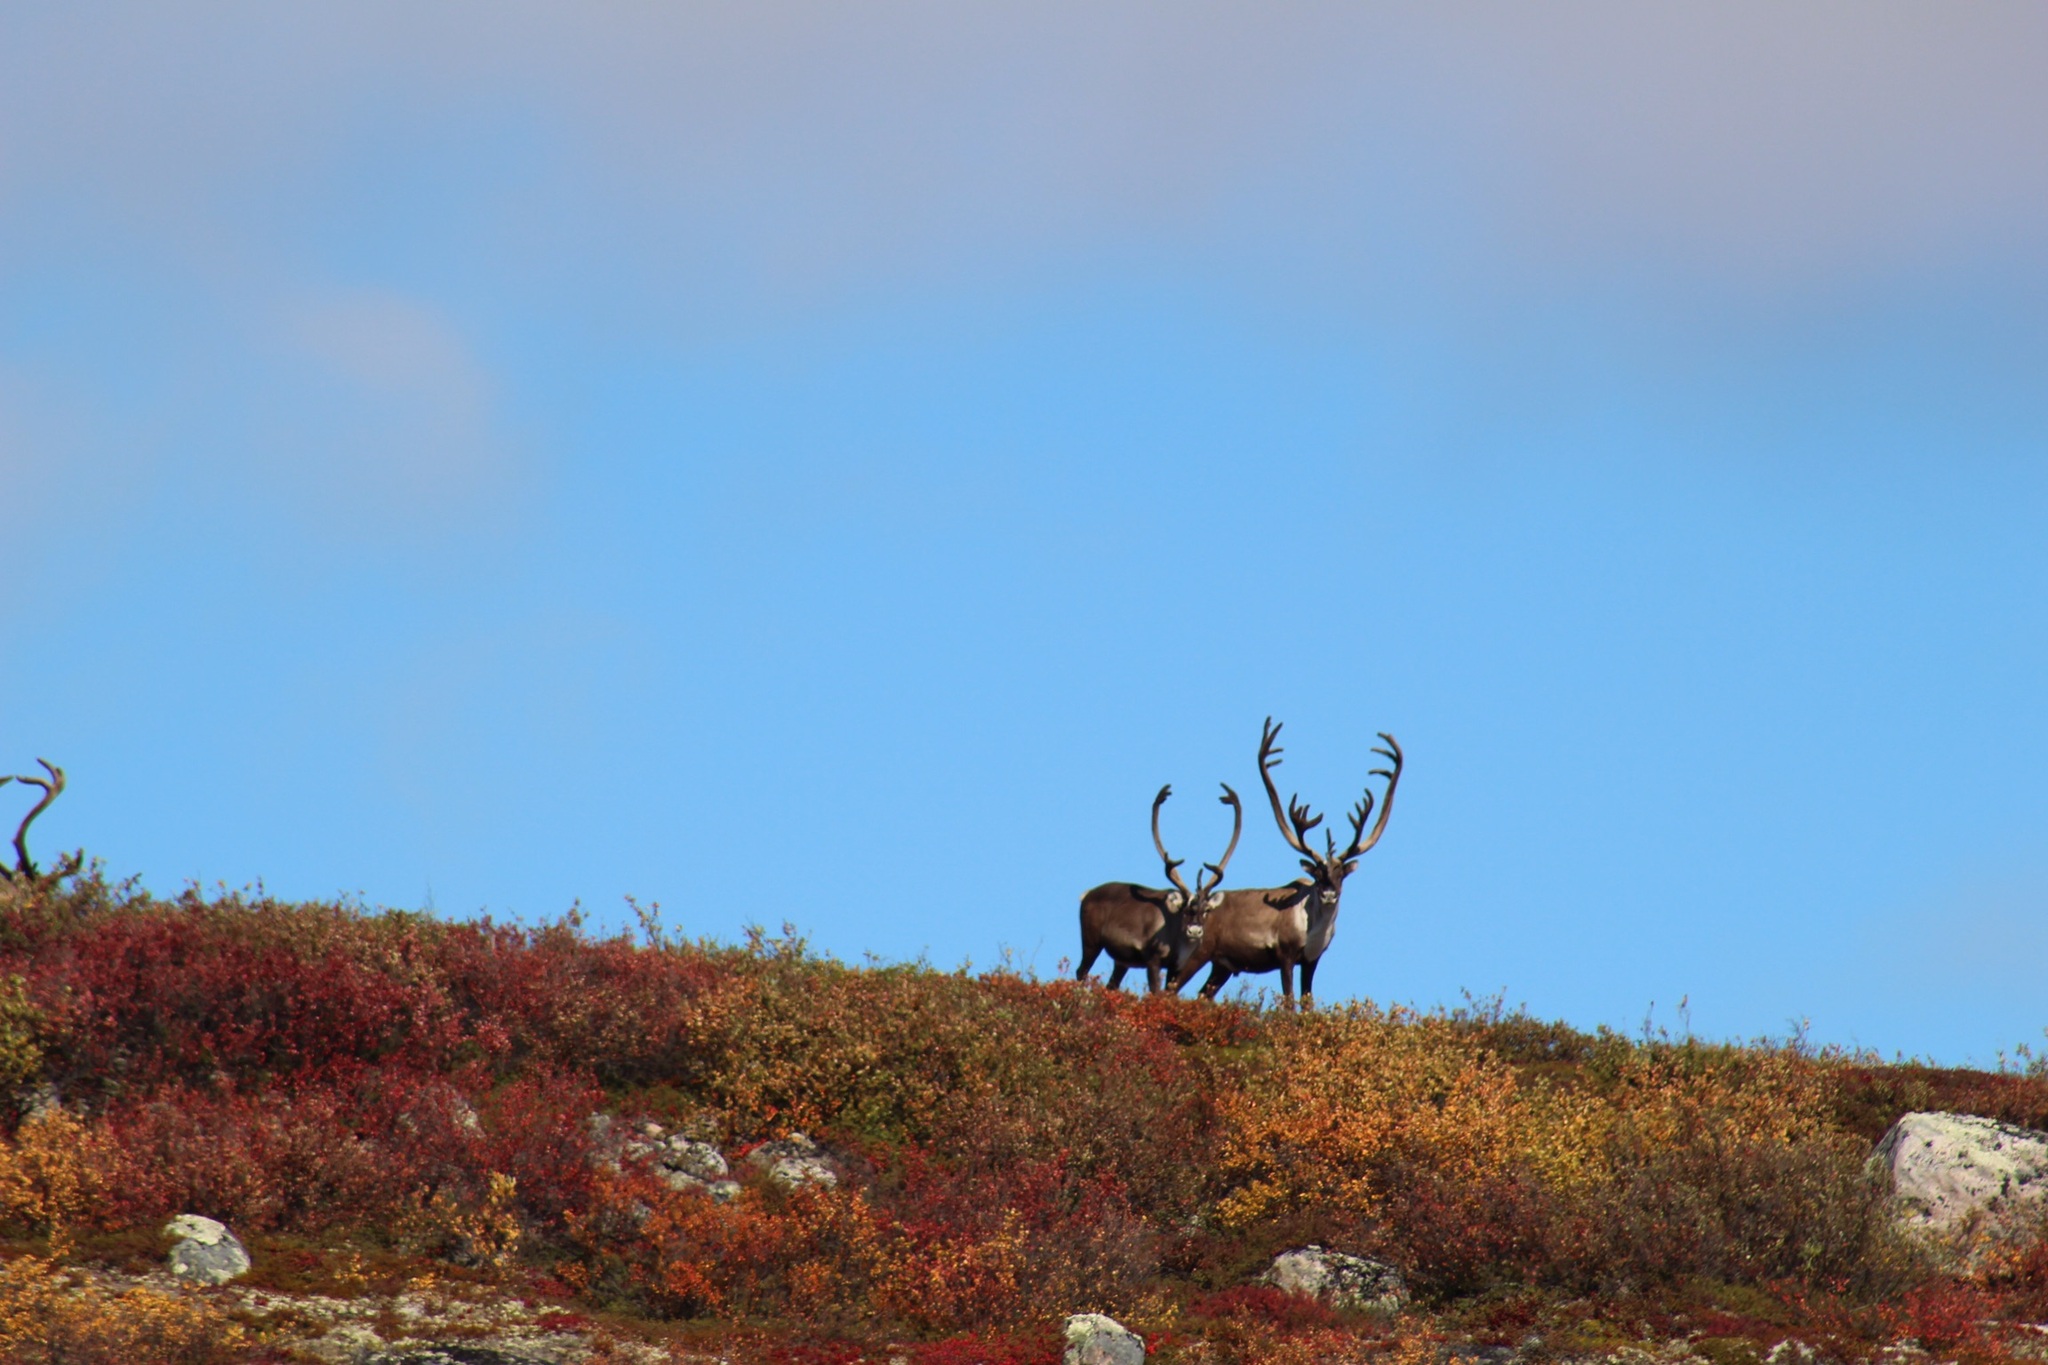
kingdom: Animalia
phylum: Chordata
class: Mammalia
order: Artiodactyla
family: Cervidae
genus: Rangifer
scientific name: Rangifer tarandus
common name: Reindeer
